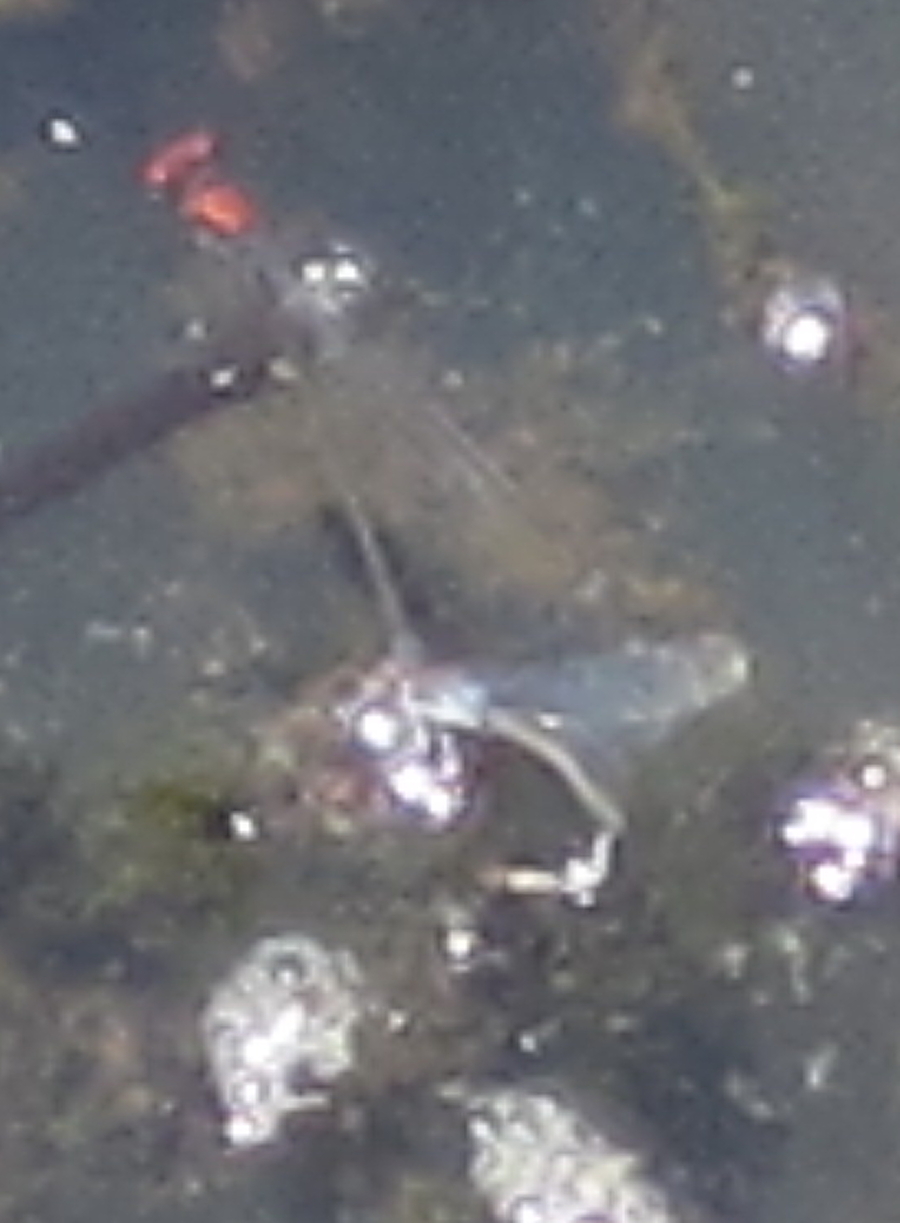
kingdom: Animalia
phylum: Arthropoda
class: Insecta
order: Odonata
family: Coenagrionidae
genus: Pseudagrion
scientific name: Pseudagrion massaicum
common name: Masai sprite
